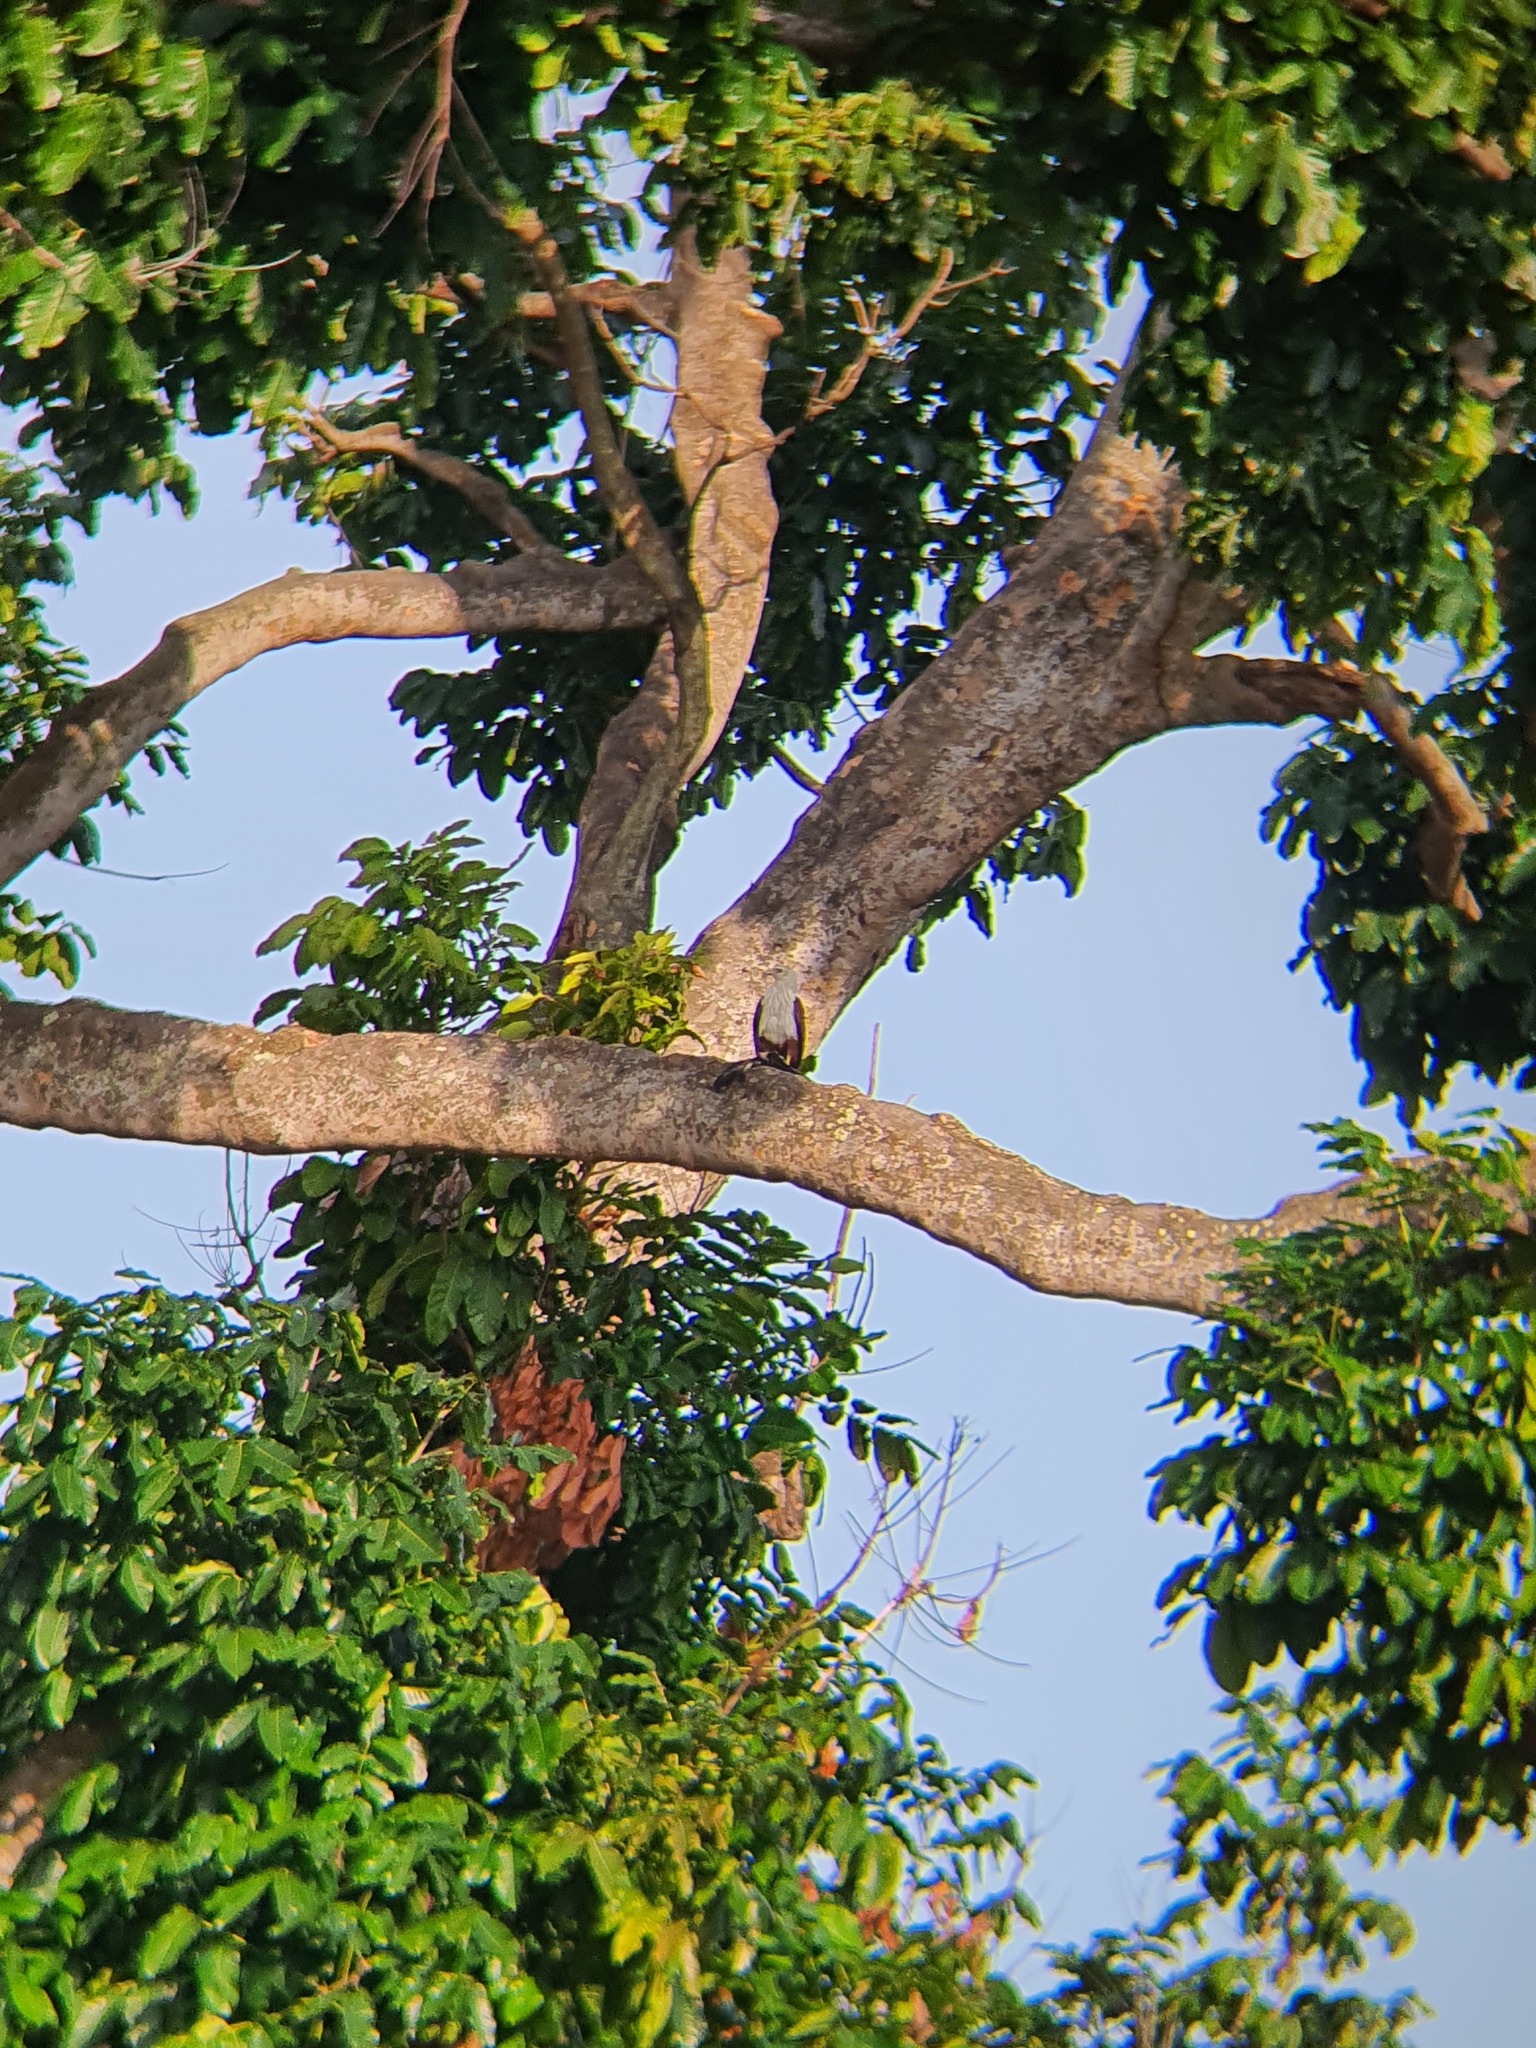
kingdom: Animalia
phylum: Chordata
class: Aves
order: Accipitriformes
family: Accipitridae
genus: Haliastur
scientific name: Haliastur indus
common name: Brahminy kite
